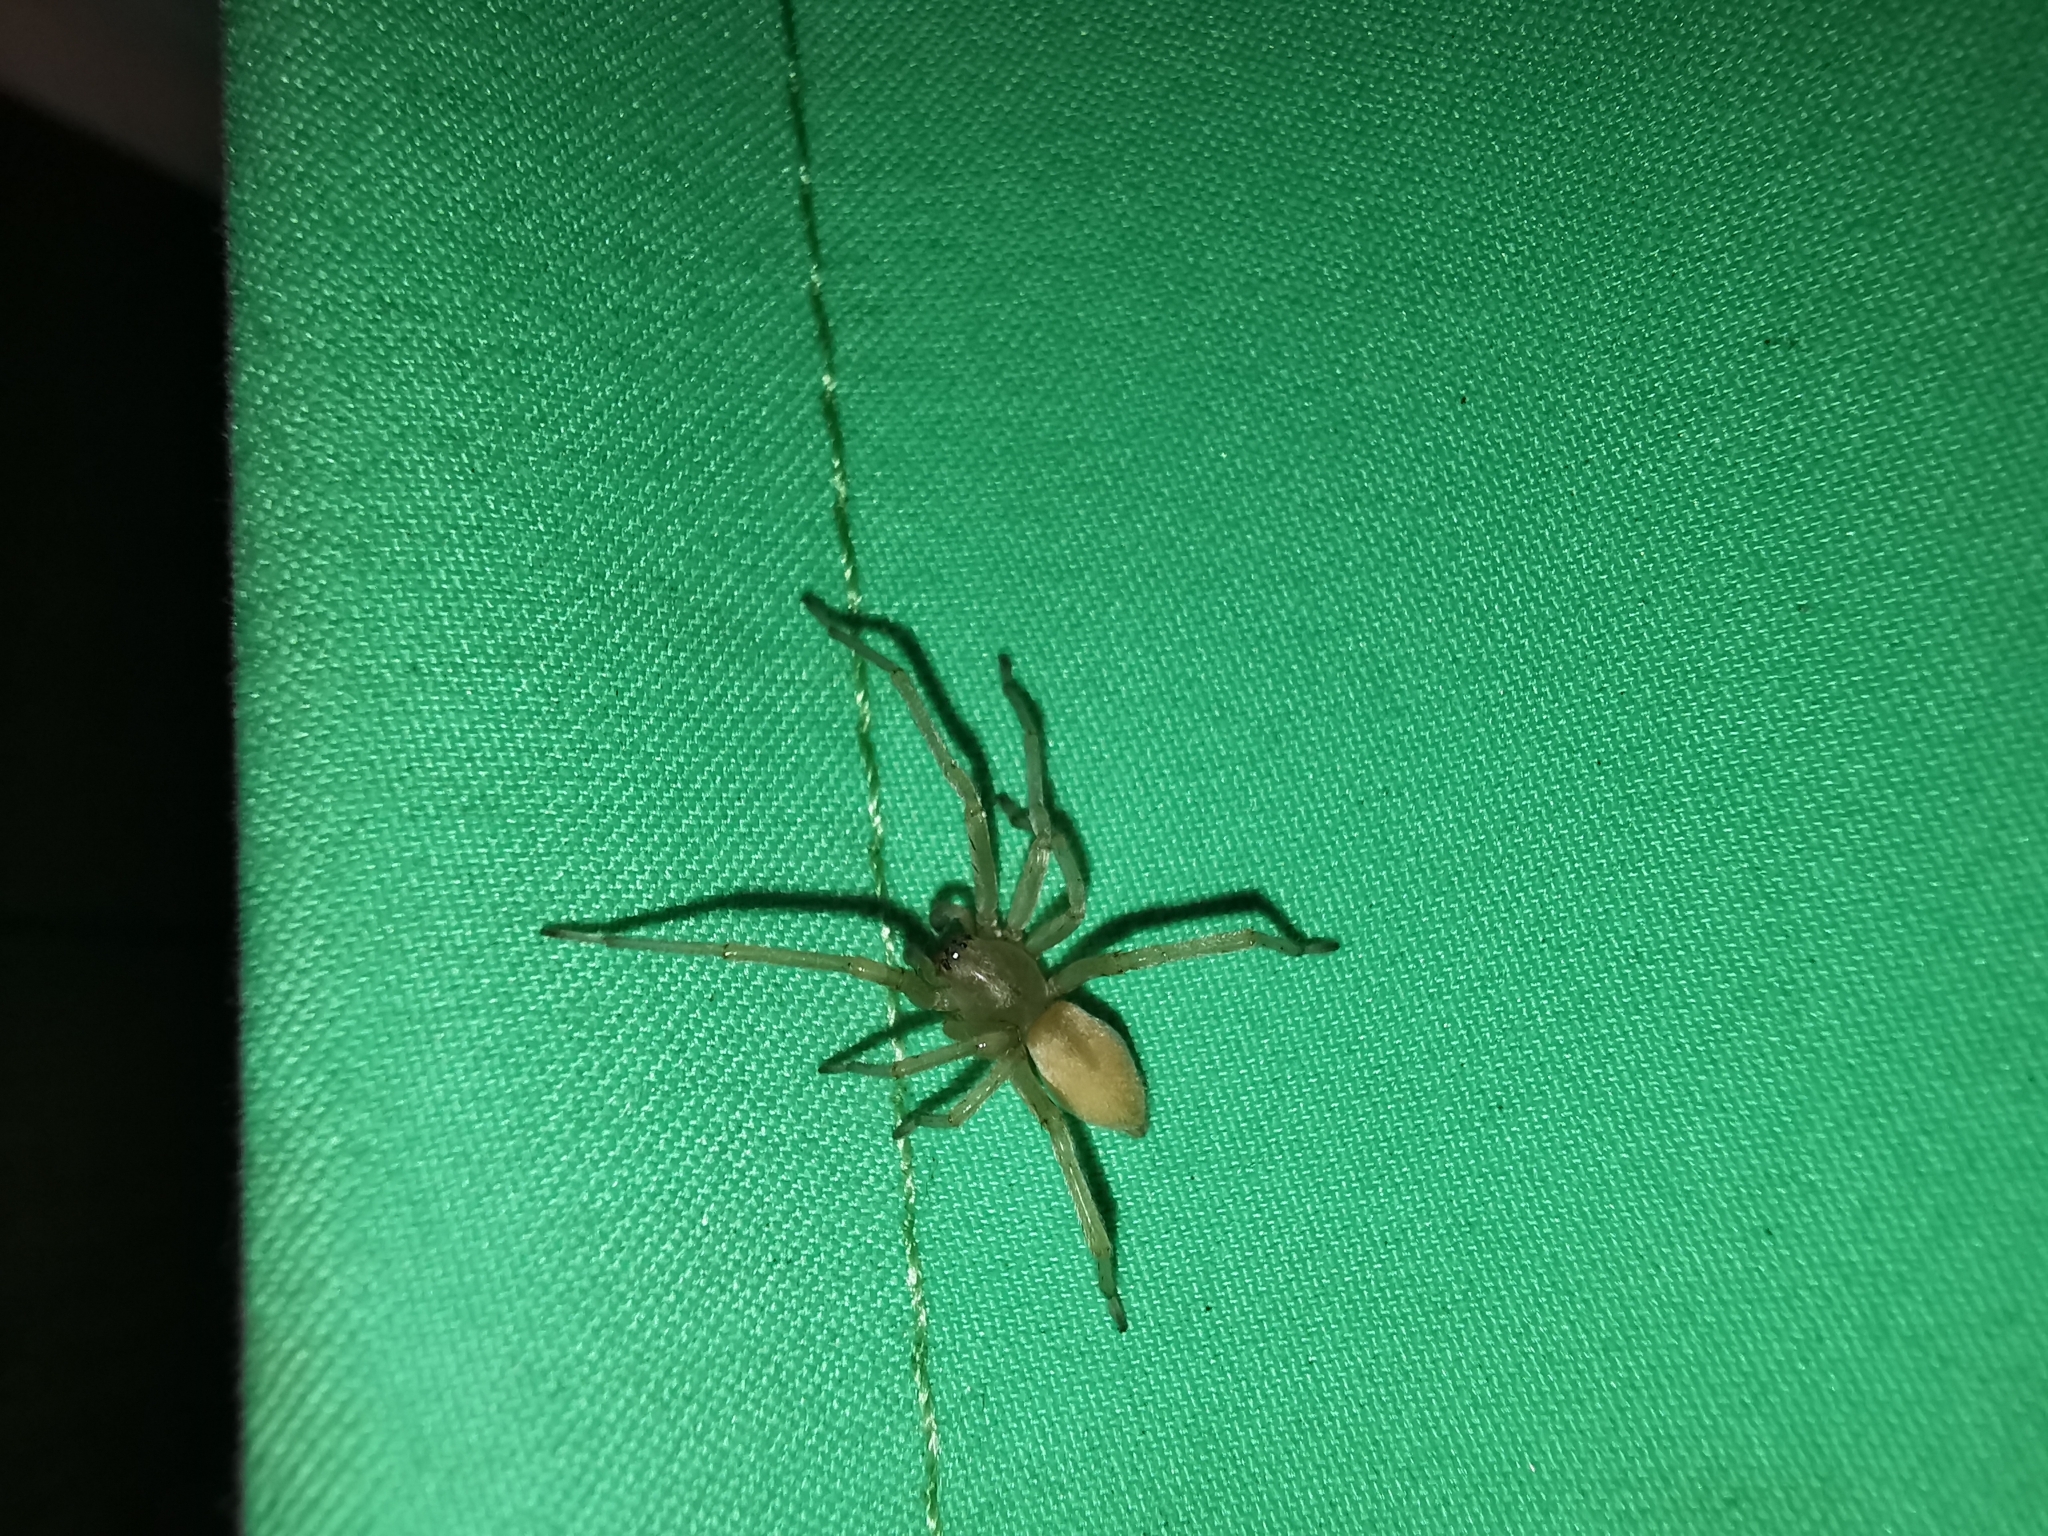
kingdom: Animalia
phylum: Arthropoda
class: Arachnida
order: Araneae
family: Cheiracanthiidae
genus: Cheiracanthium
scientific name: Cheiracanthium
